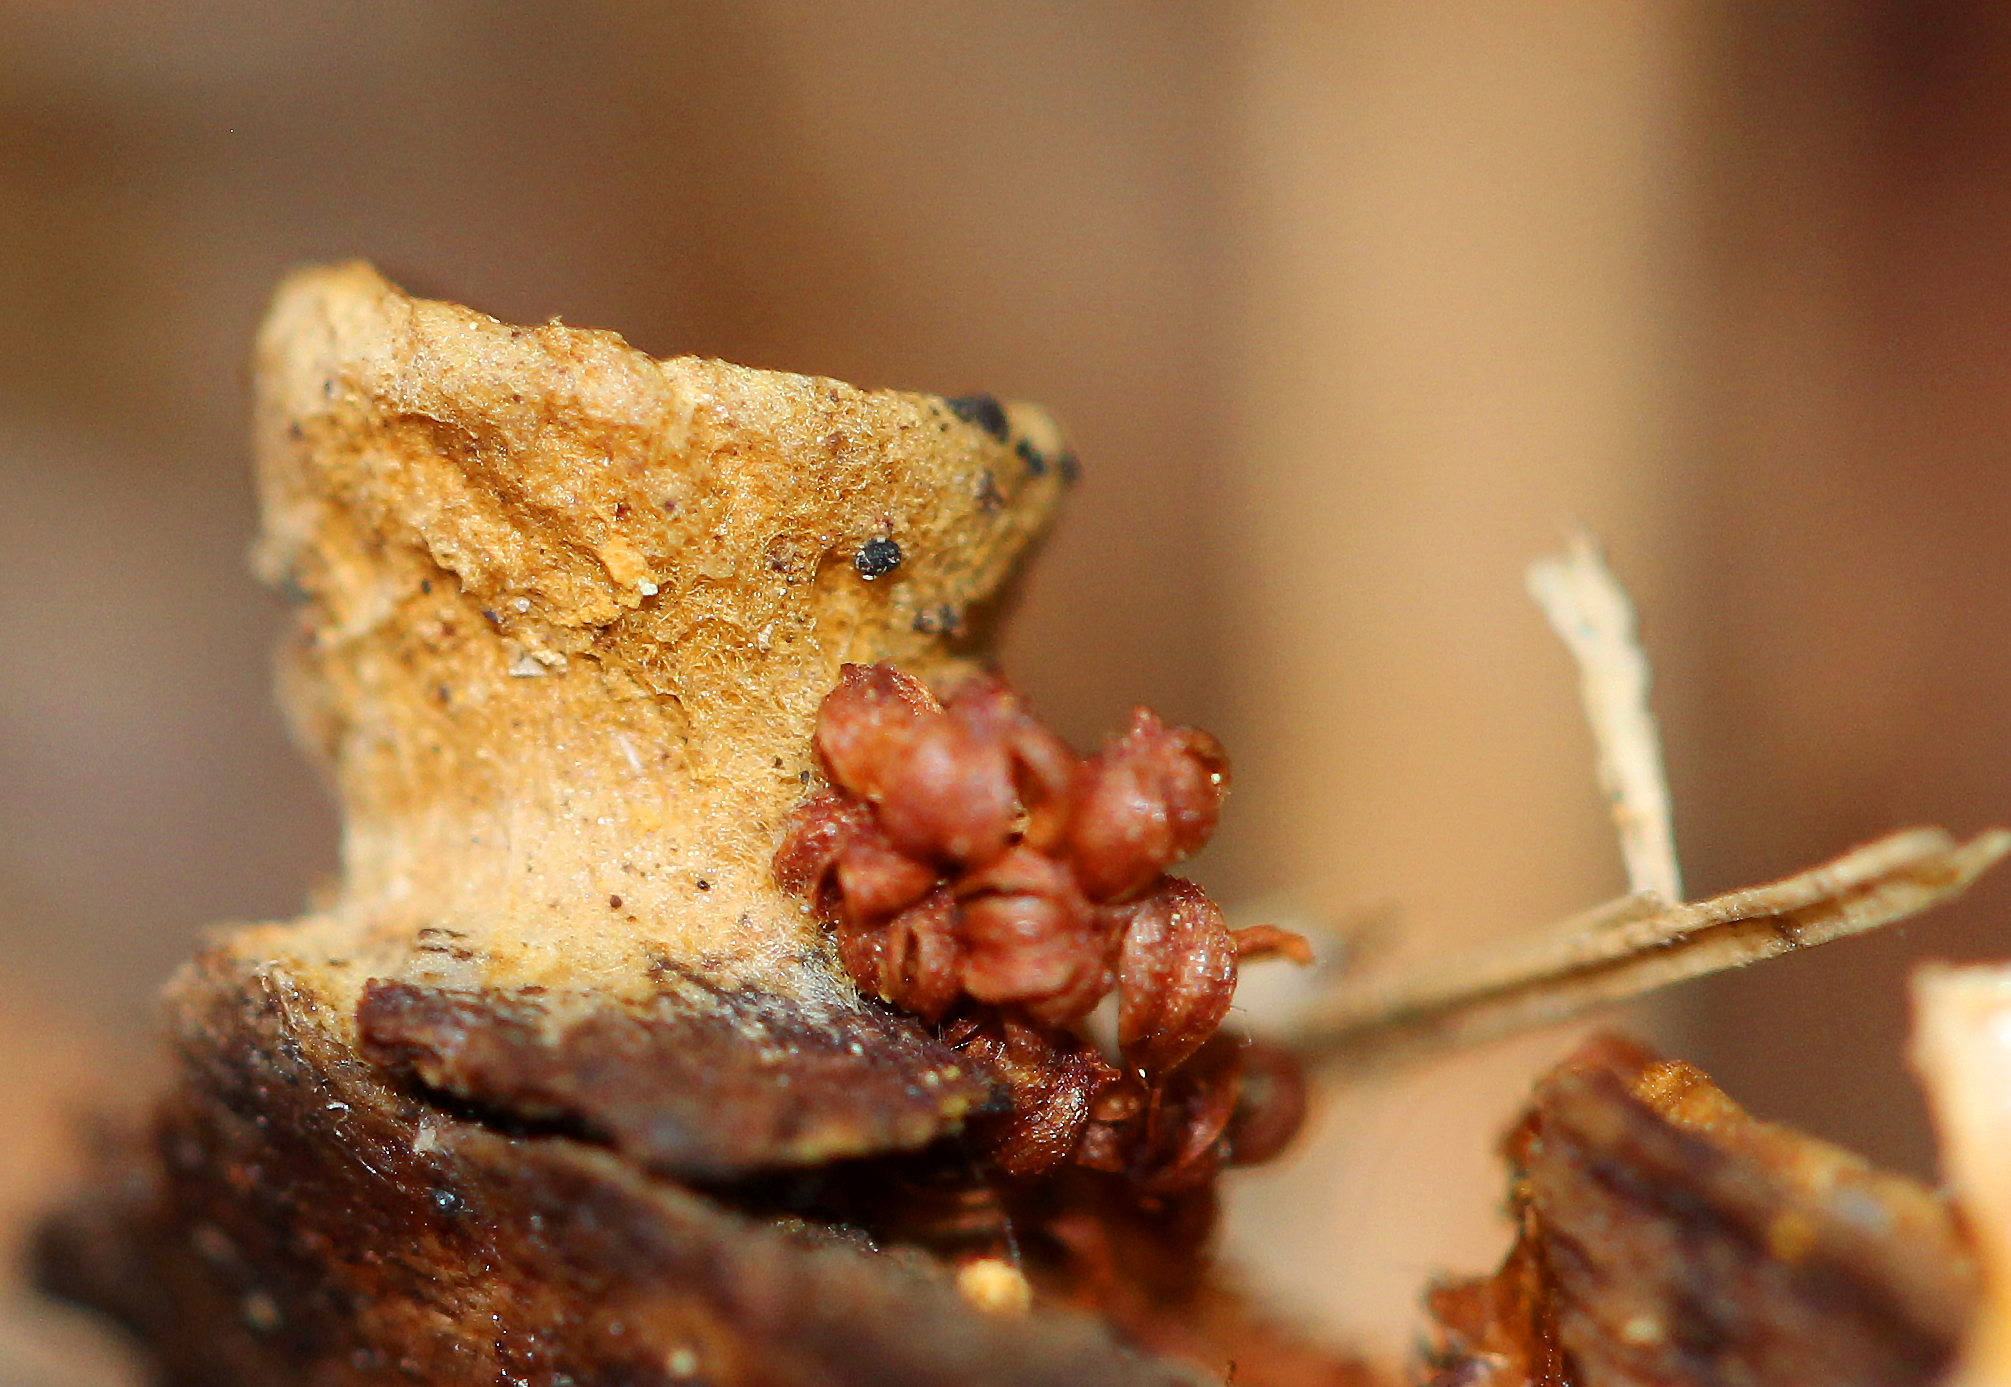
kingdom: Fungi
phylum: Basidiomycota
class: Agaricomycetes
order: Agaricales
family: Nidulariaceae
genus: Crucibulum
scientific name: Crucibulum laeve
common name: Common bird's nest
